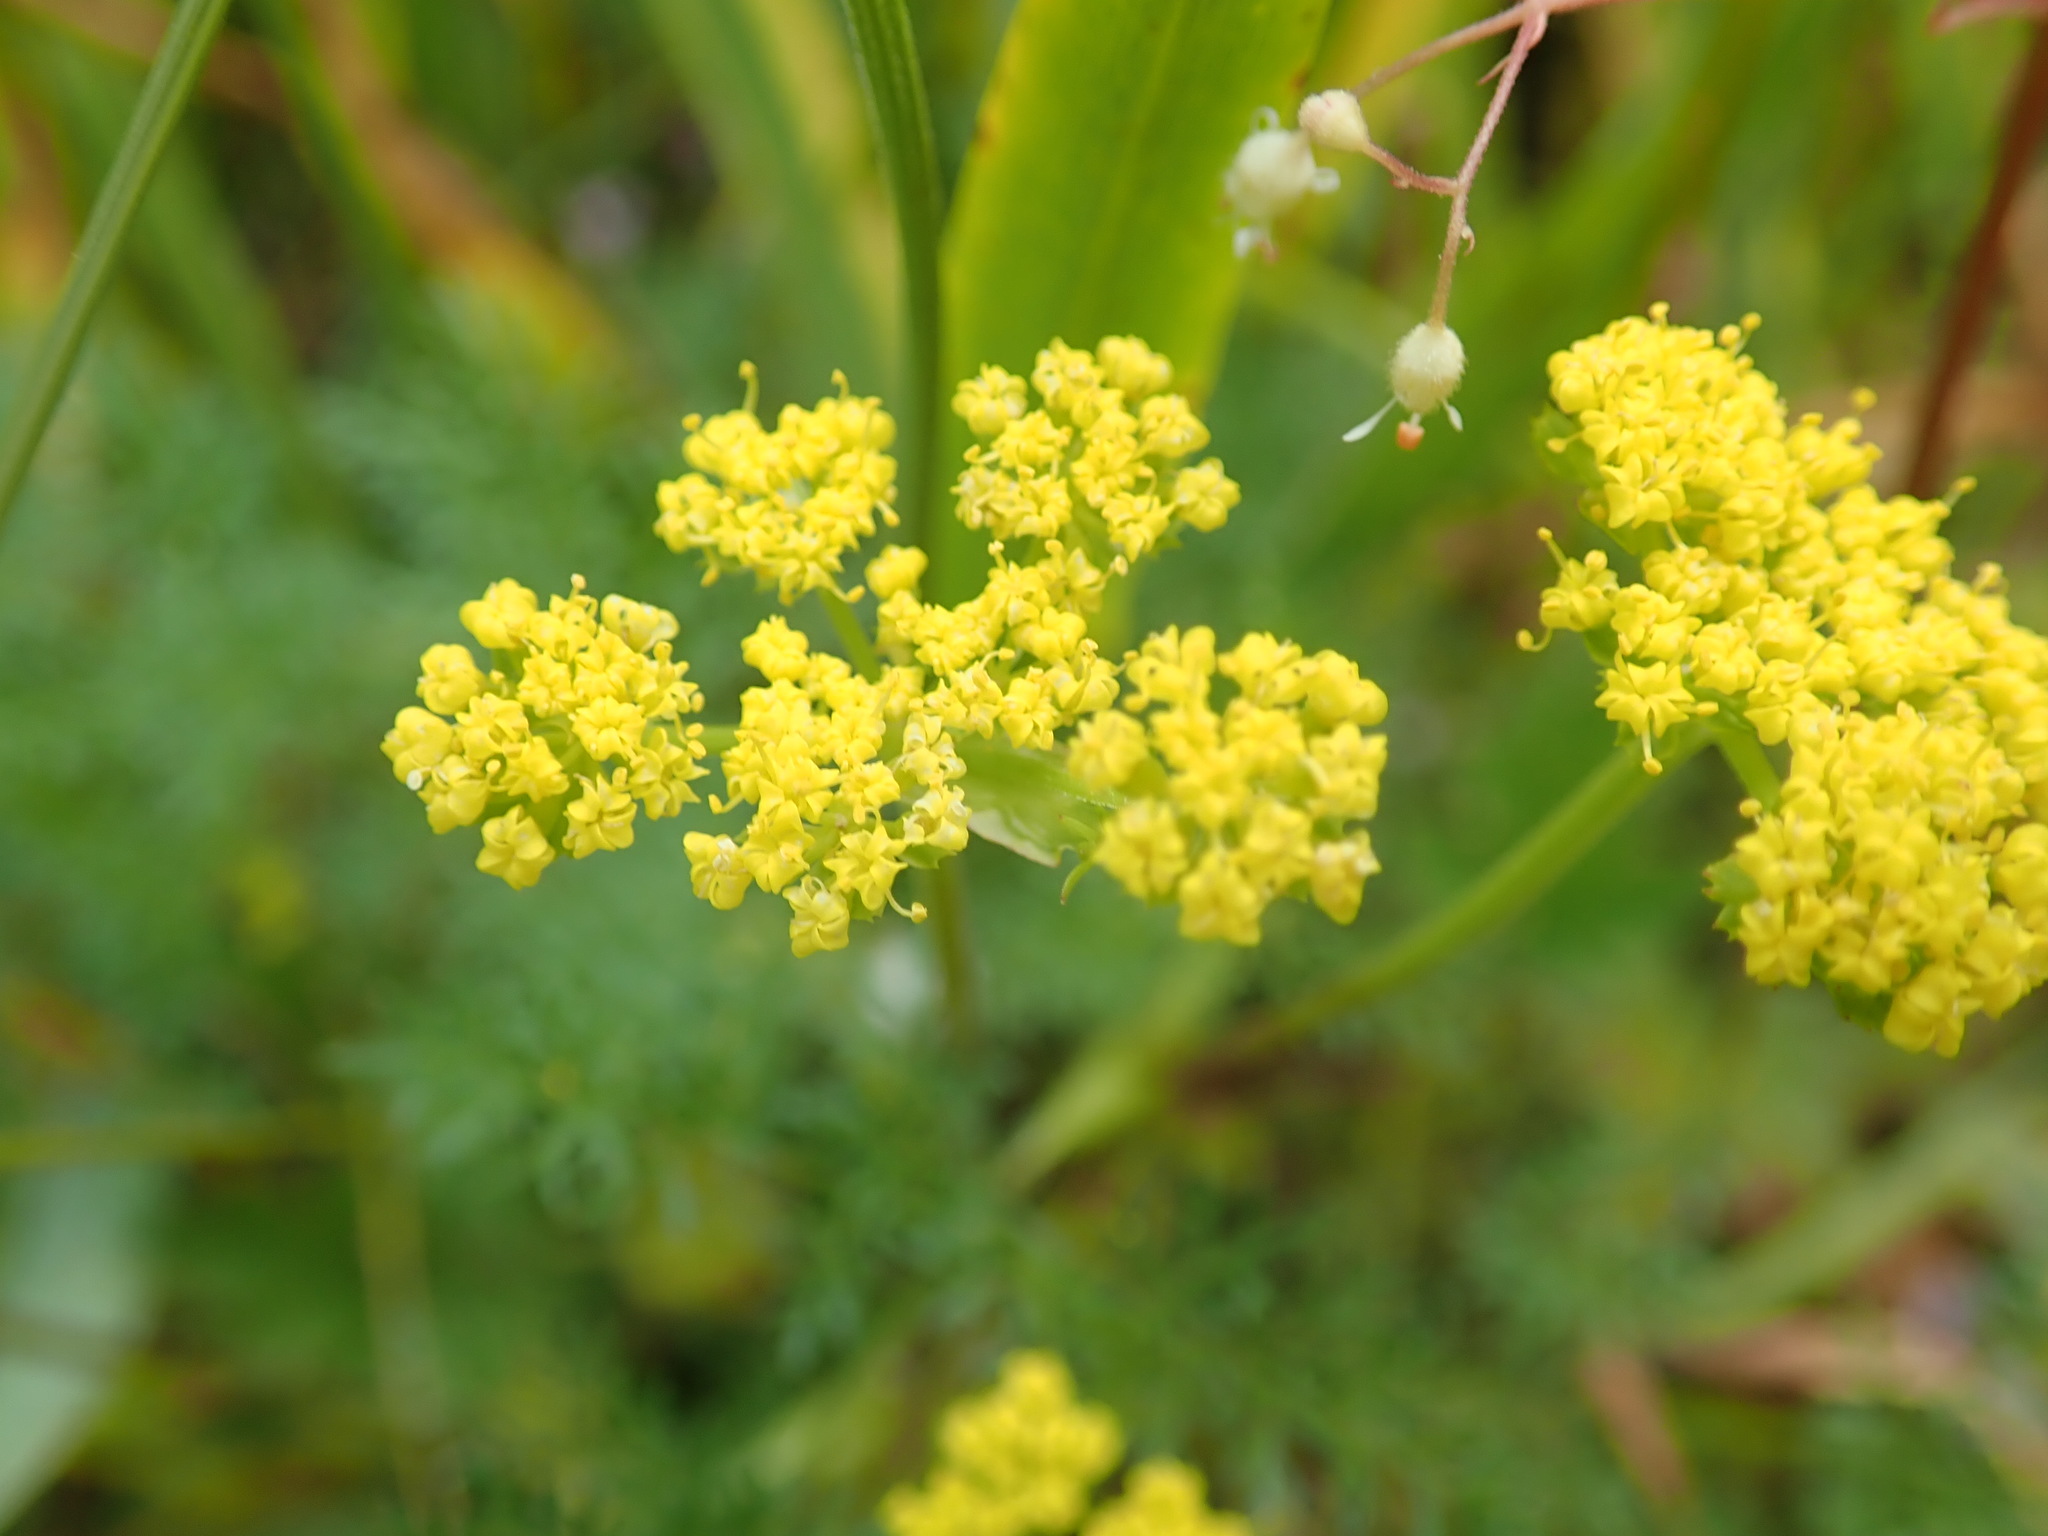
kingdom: Plantae
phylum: Tracheophyta
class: Magnoliopsida
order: Apiales
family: Apiaceae
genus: Lomatium
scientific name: Lomatium utriculatum
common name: Fine-leaf desert-parsley
